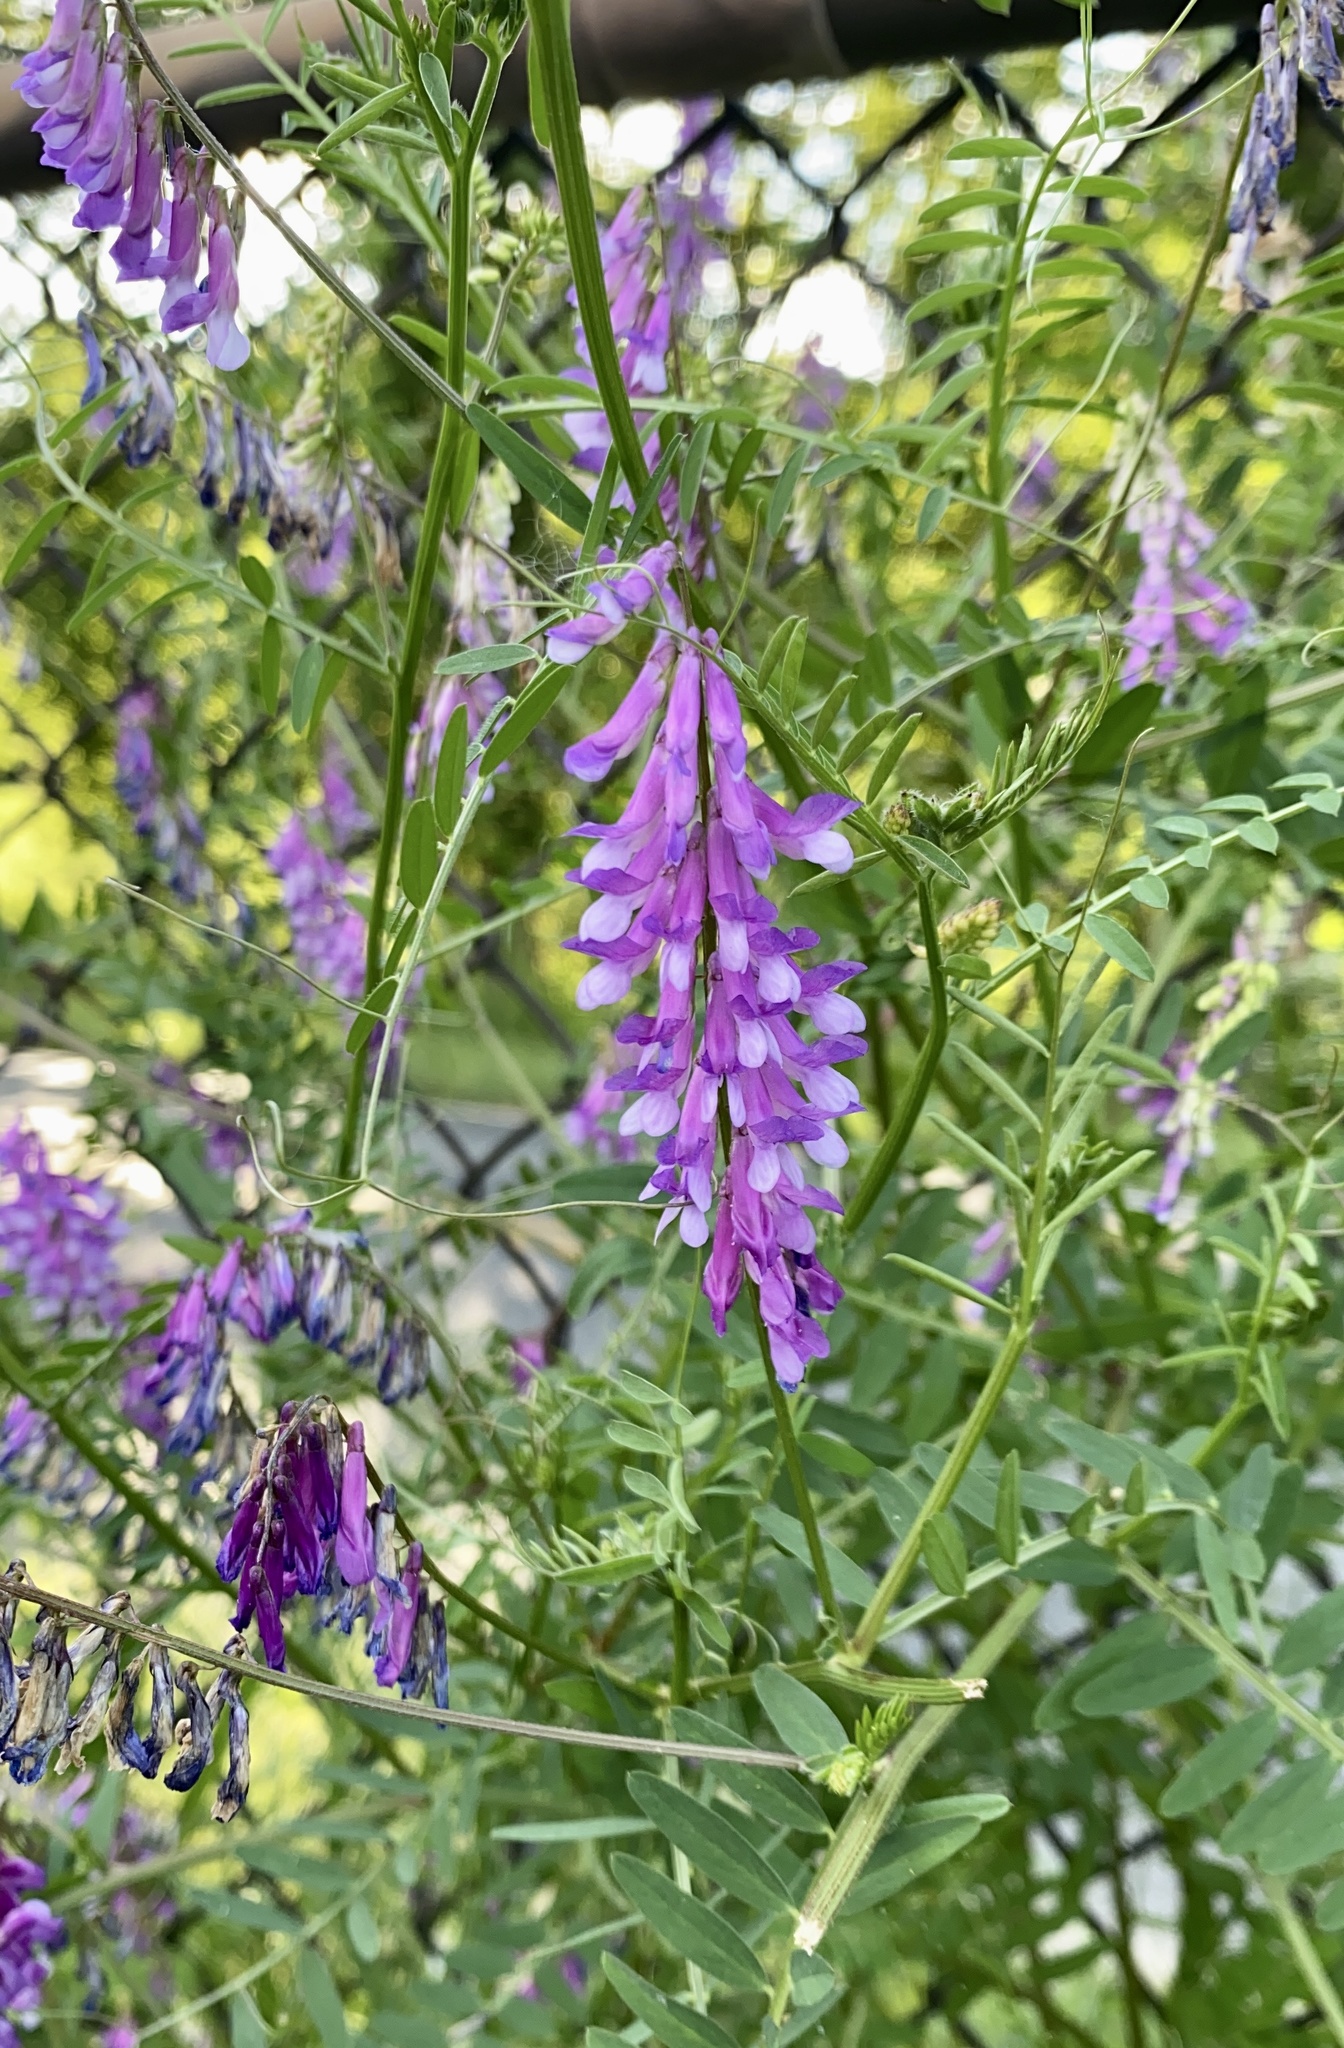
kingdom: Plantae
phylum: Tracheophyta
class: Magnoliopsida
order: Fabales
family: Fabaceae
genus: Vicia
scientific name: Vicia villosa
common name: Fodder vetch
